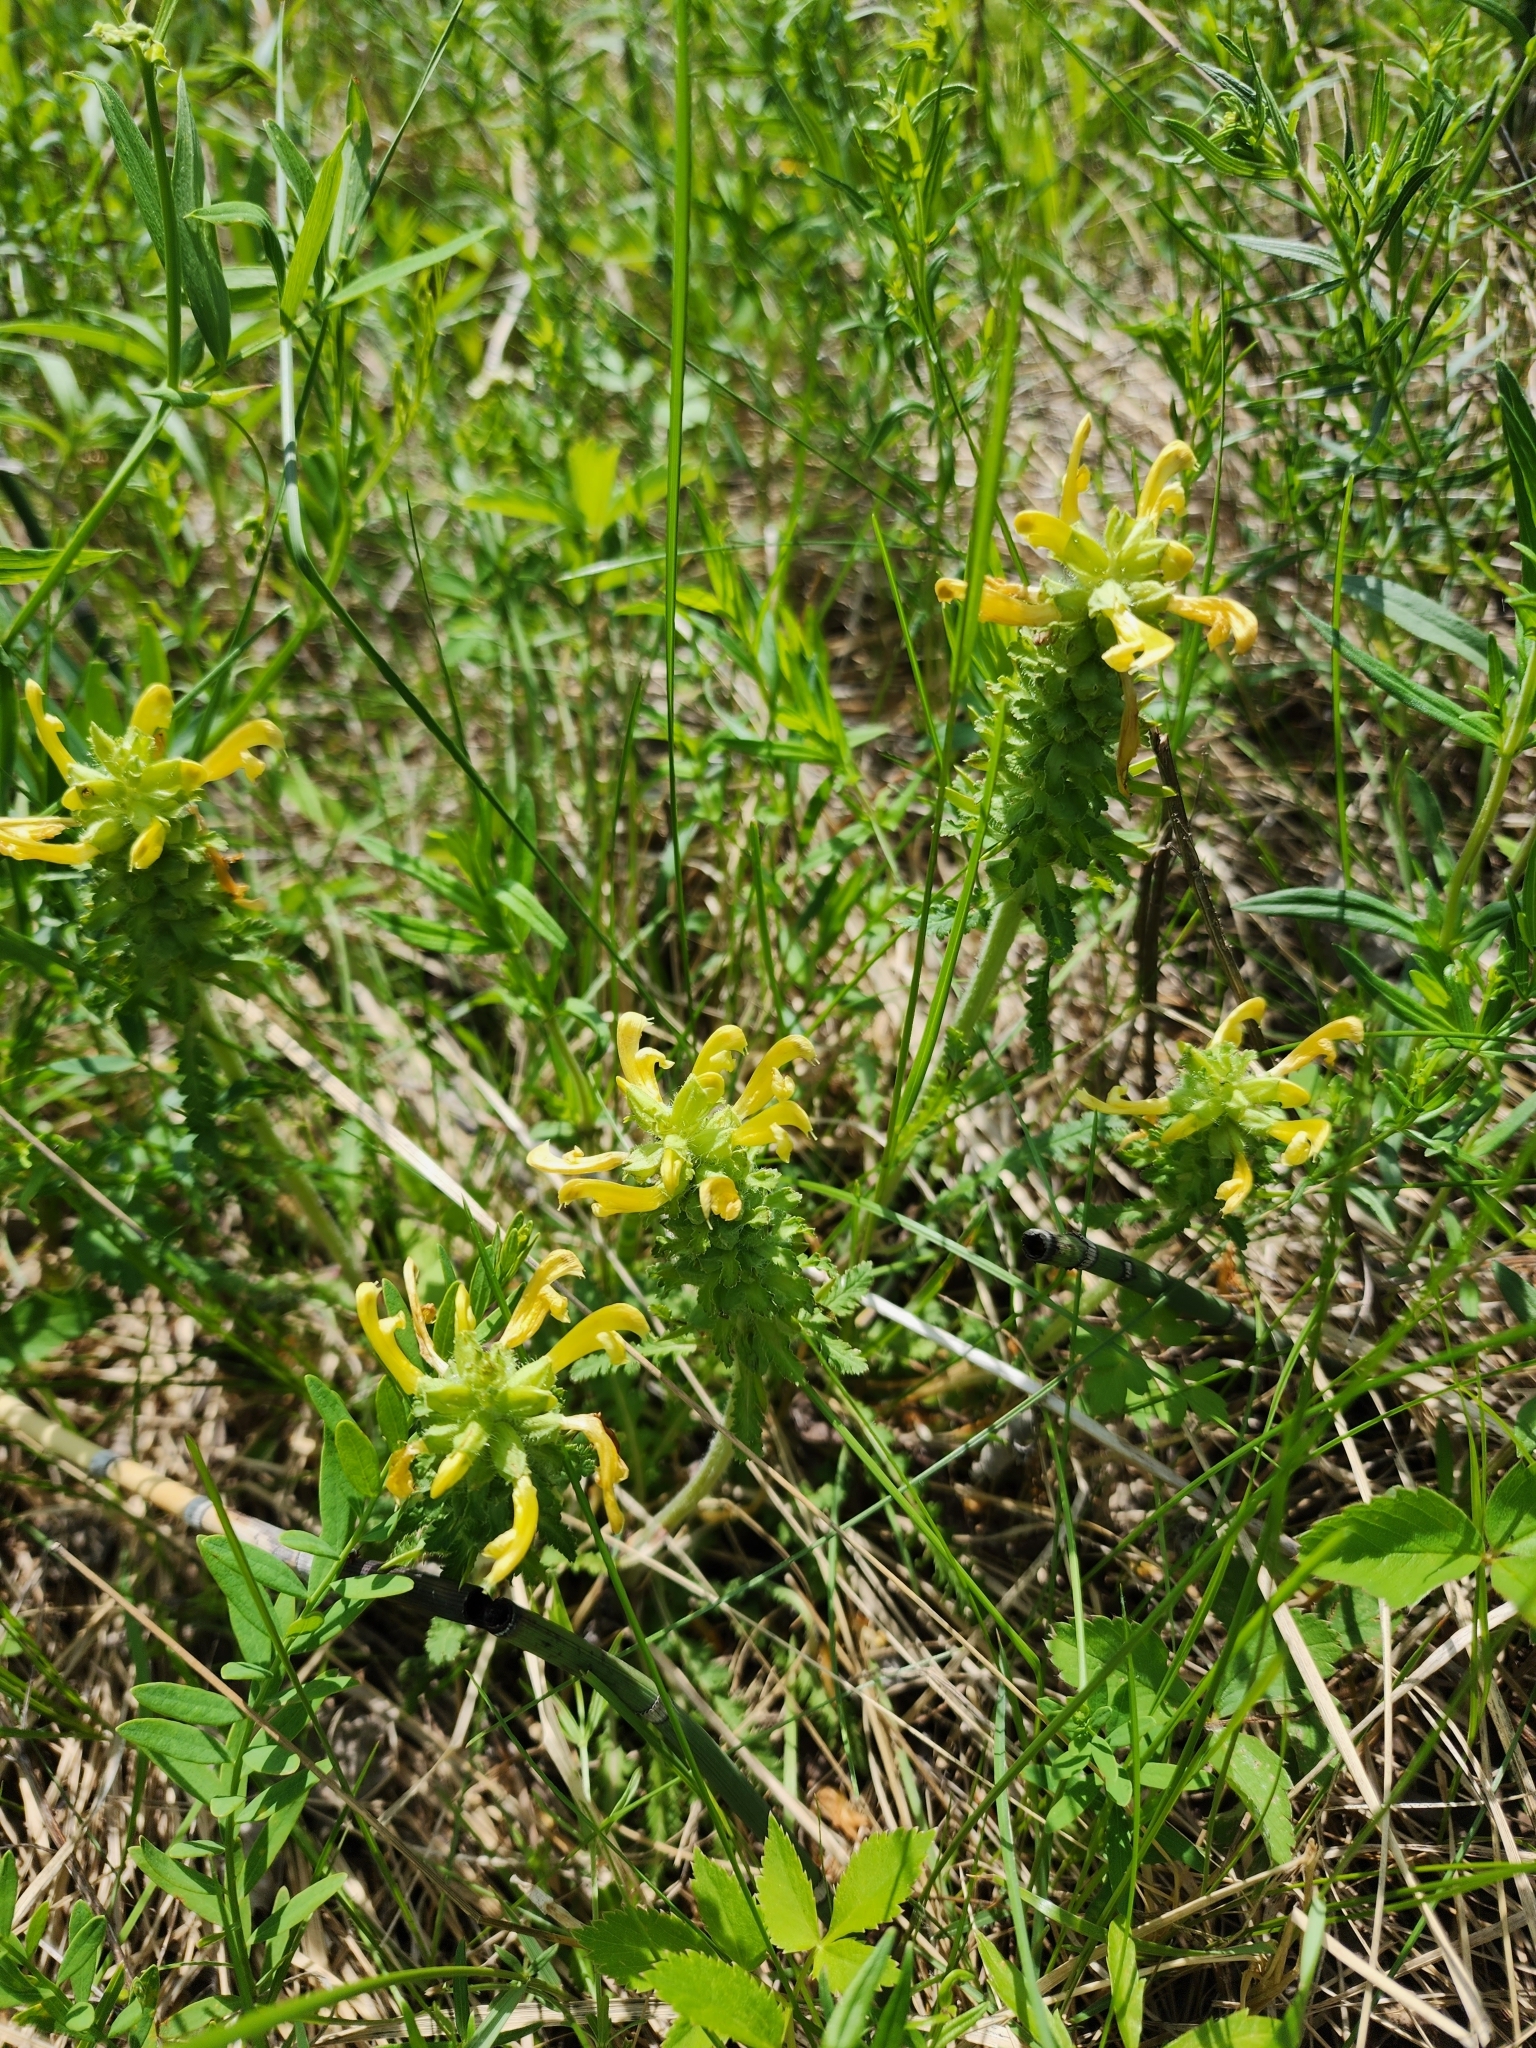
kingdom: Plantae
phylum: Tracheophyta
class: Magnoliopsida
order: Lamiales
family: Orobanchaceae
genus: Pedicularis
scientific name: Pedicularis canadensis
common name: Early lousewort
